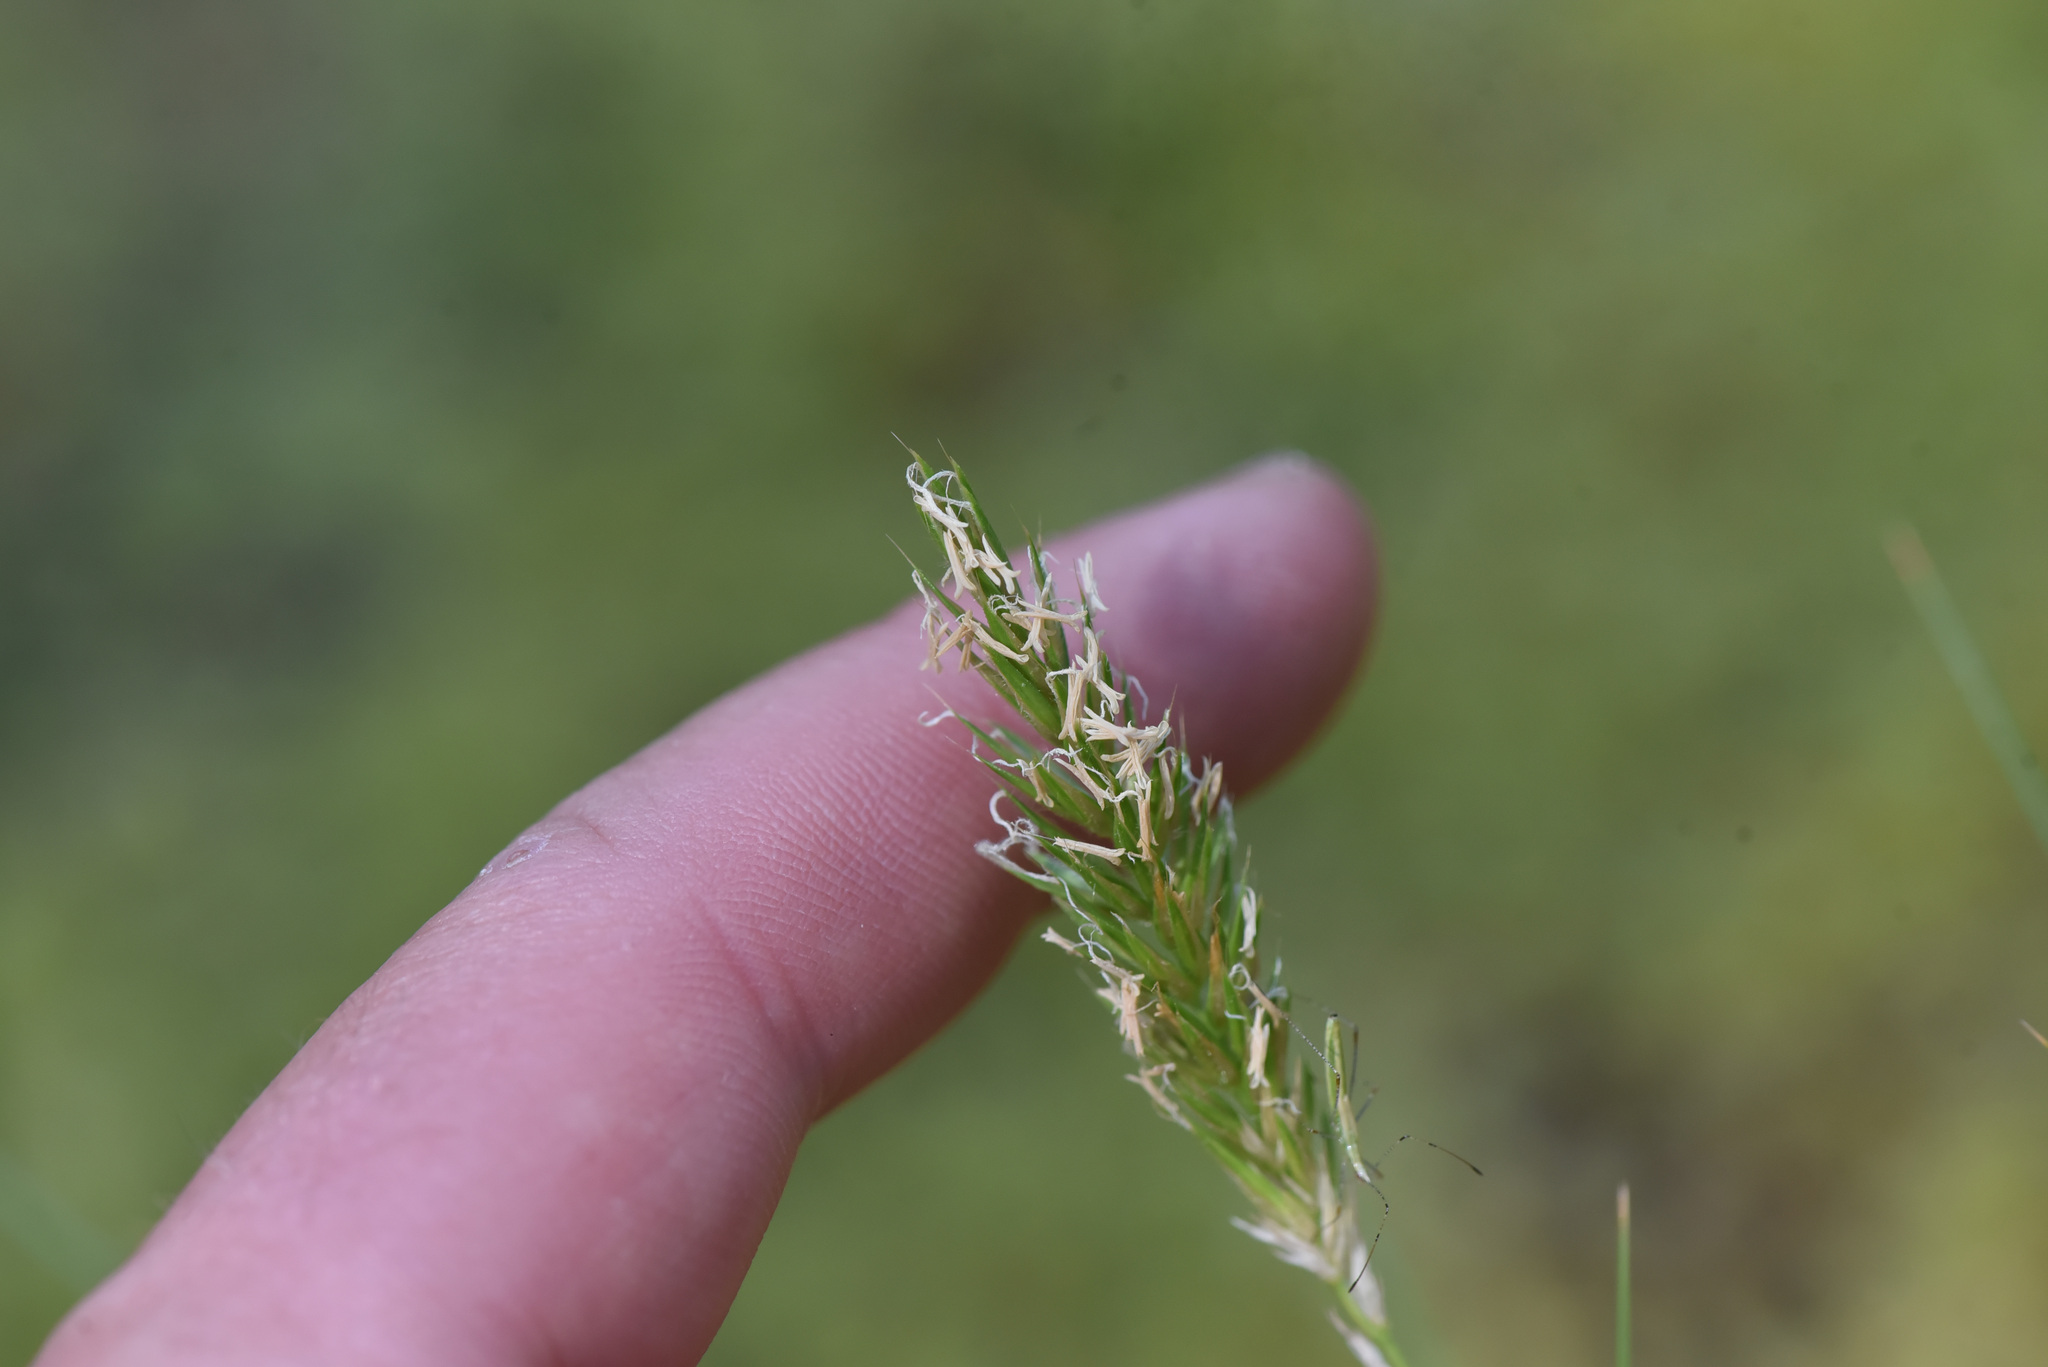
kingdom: Plantae
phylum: Tracheophyta
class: Liliopsida
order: Poales
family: Poaceae
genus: Anthoxanthum
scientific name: Anthoxanthum odoratum
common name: Sweet vernalgrass
